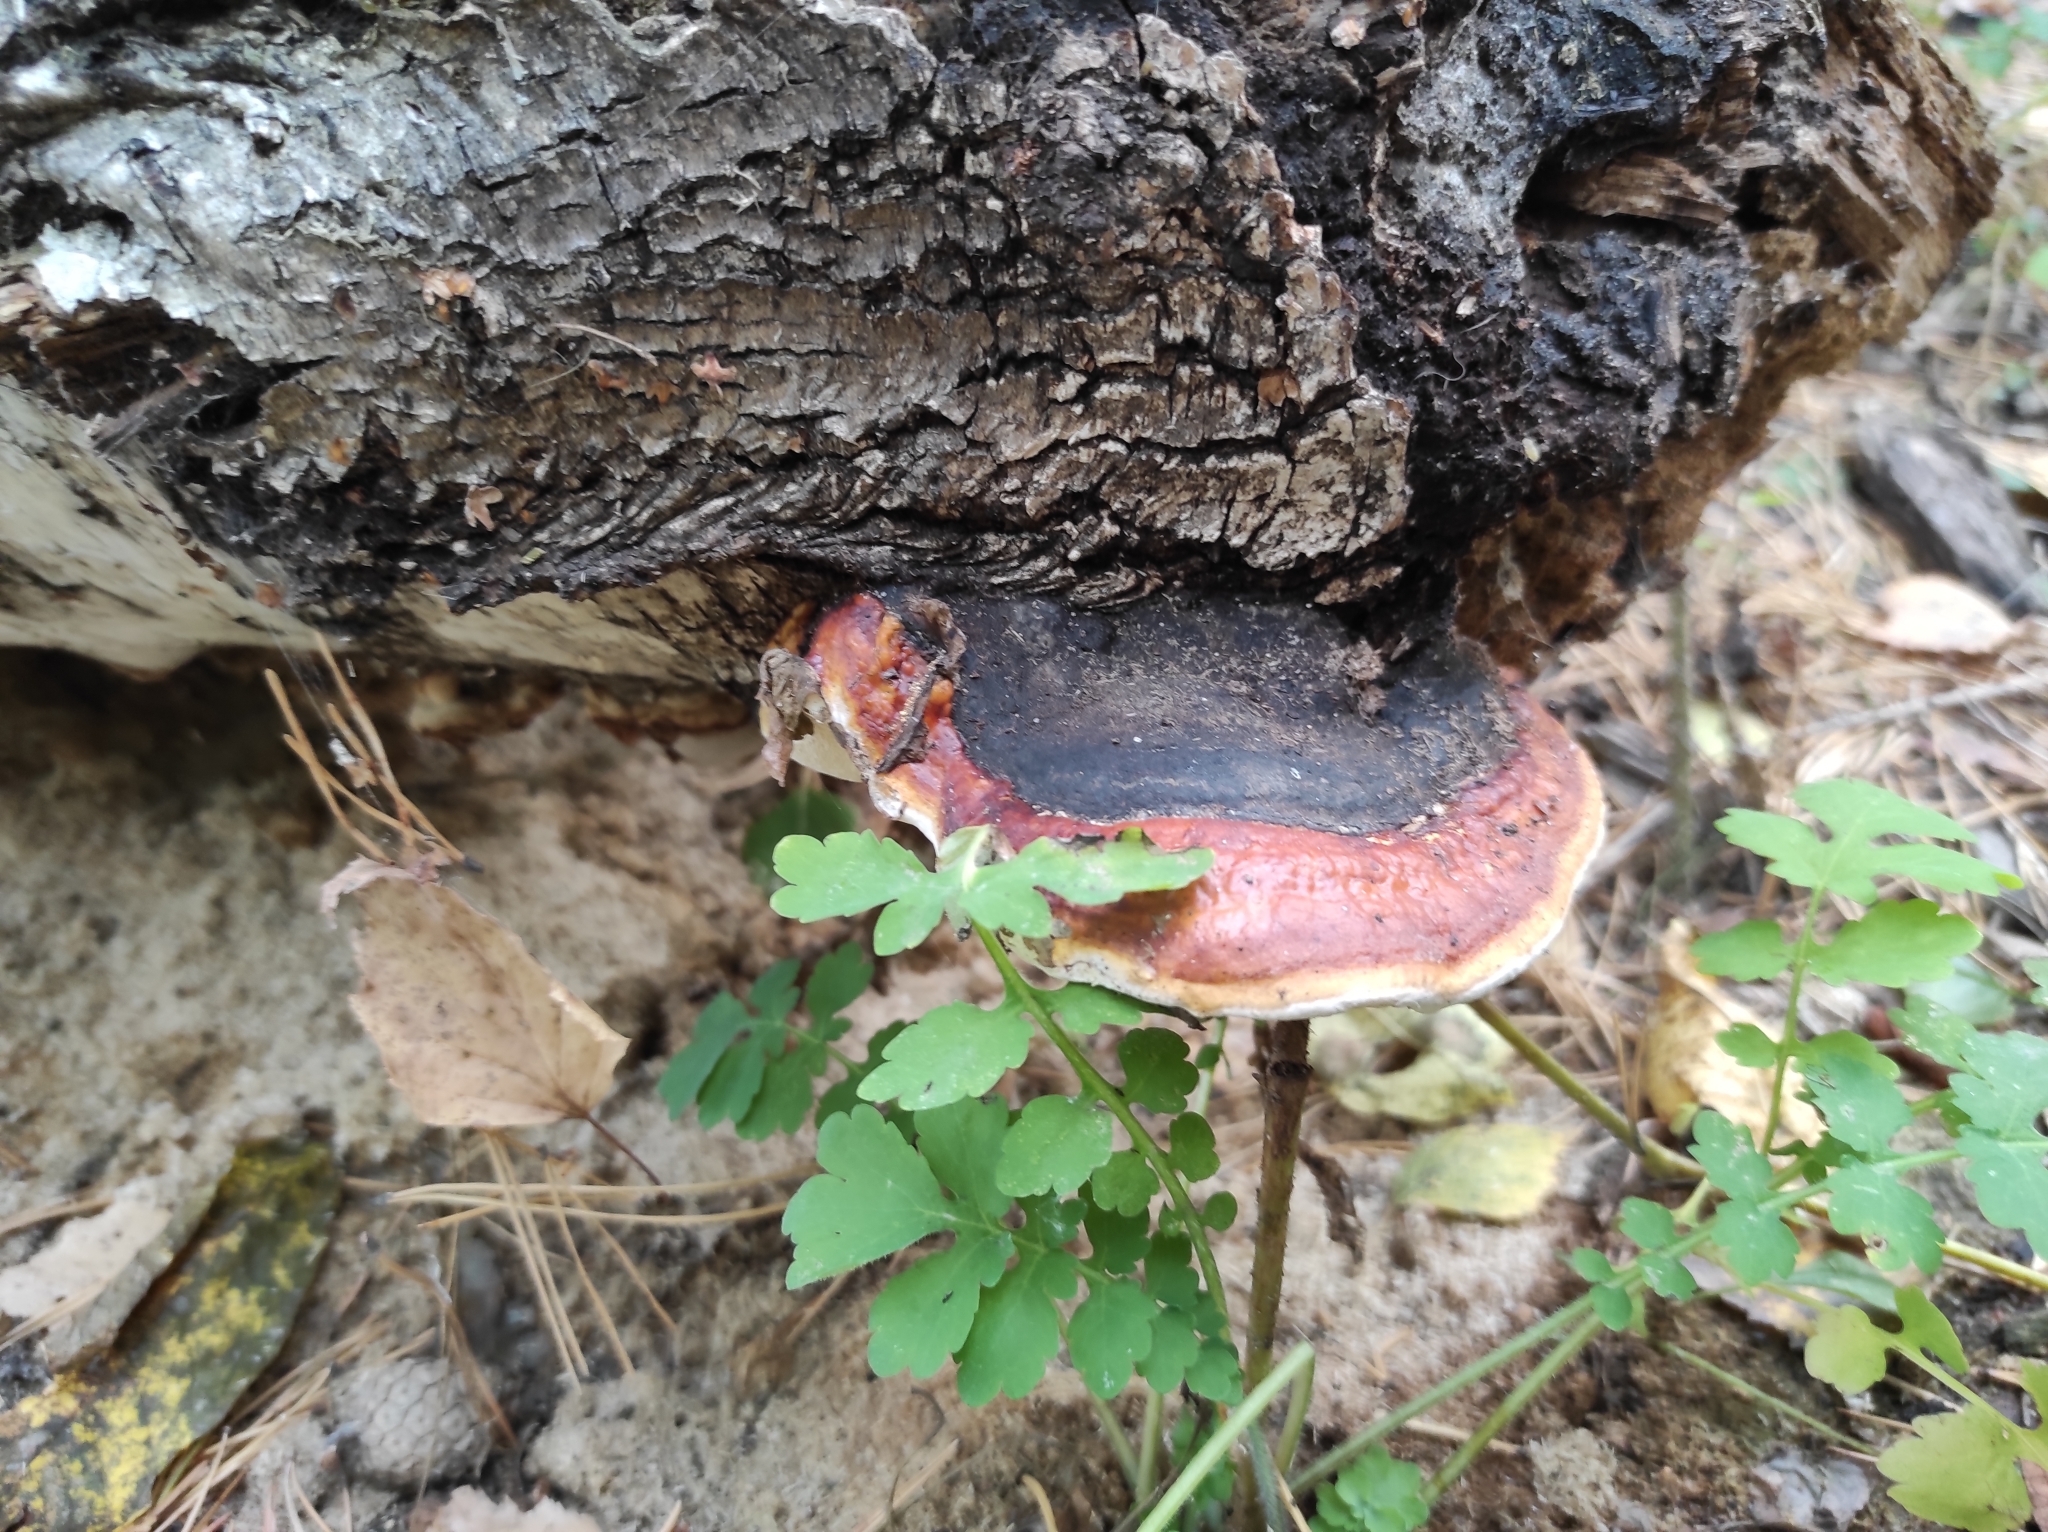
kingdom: Fungi
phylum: Basidiomycota
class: Agaricomycetes
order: Polyporales
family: Fomitopsidaceae
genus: Fomitopsis
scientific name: Fomitopsis pinicola
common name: Red-belted bracket
